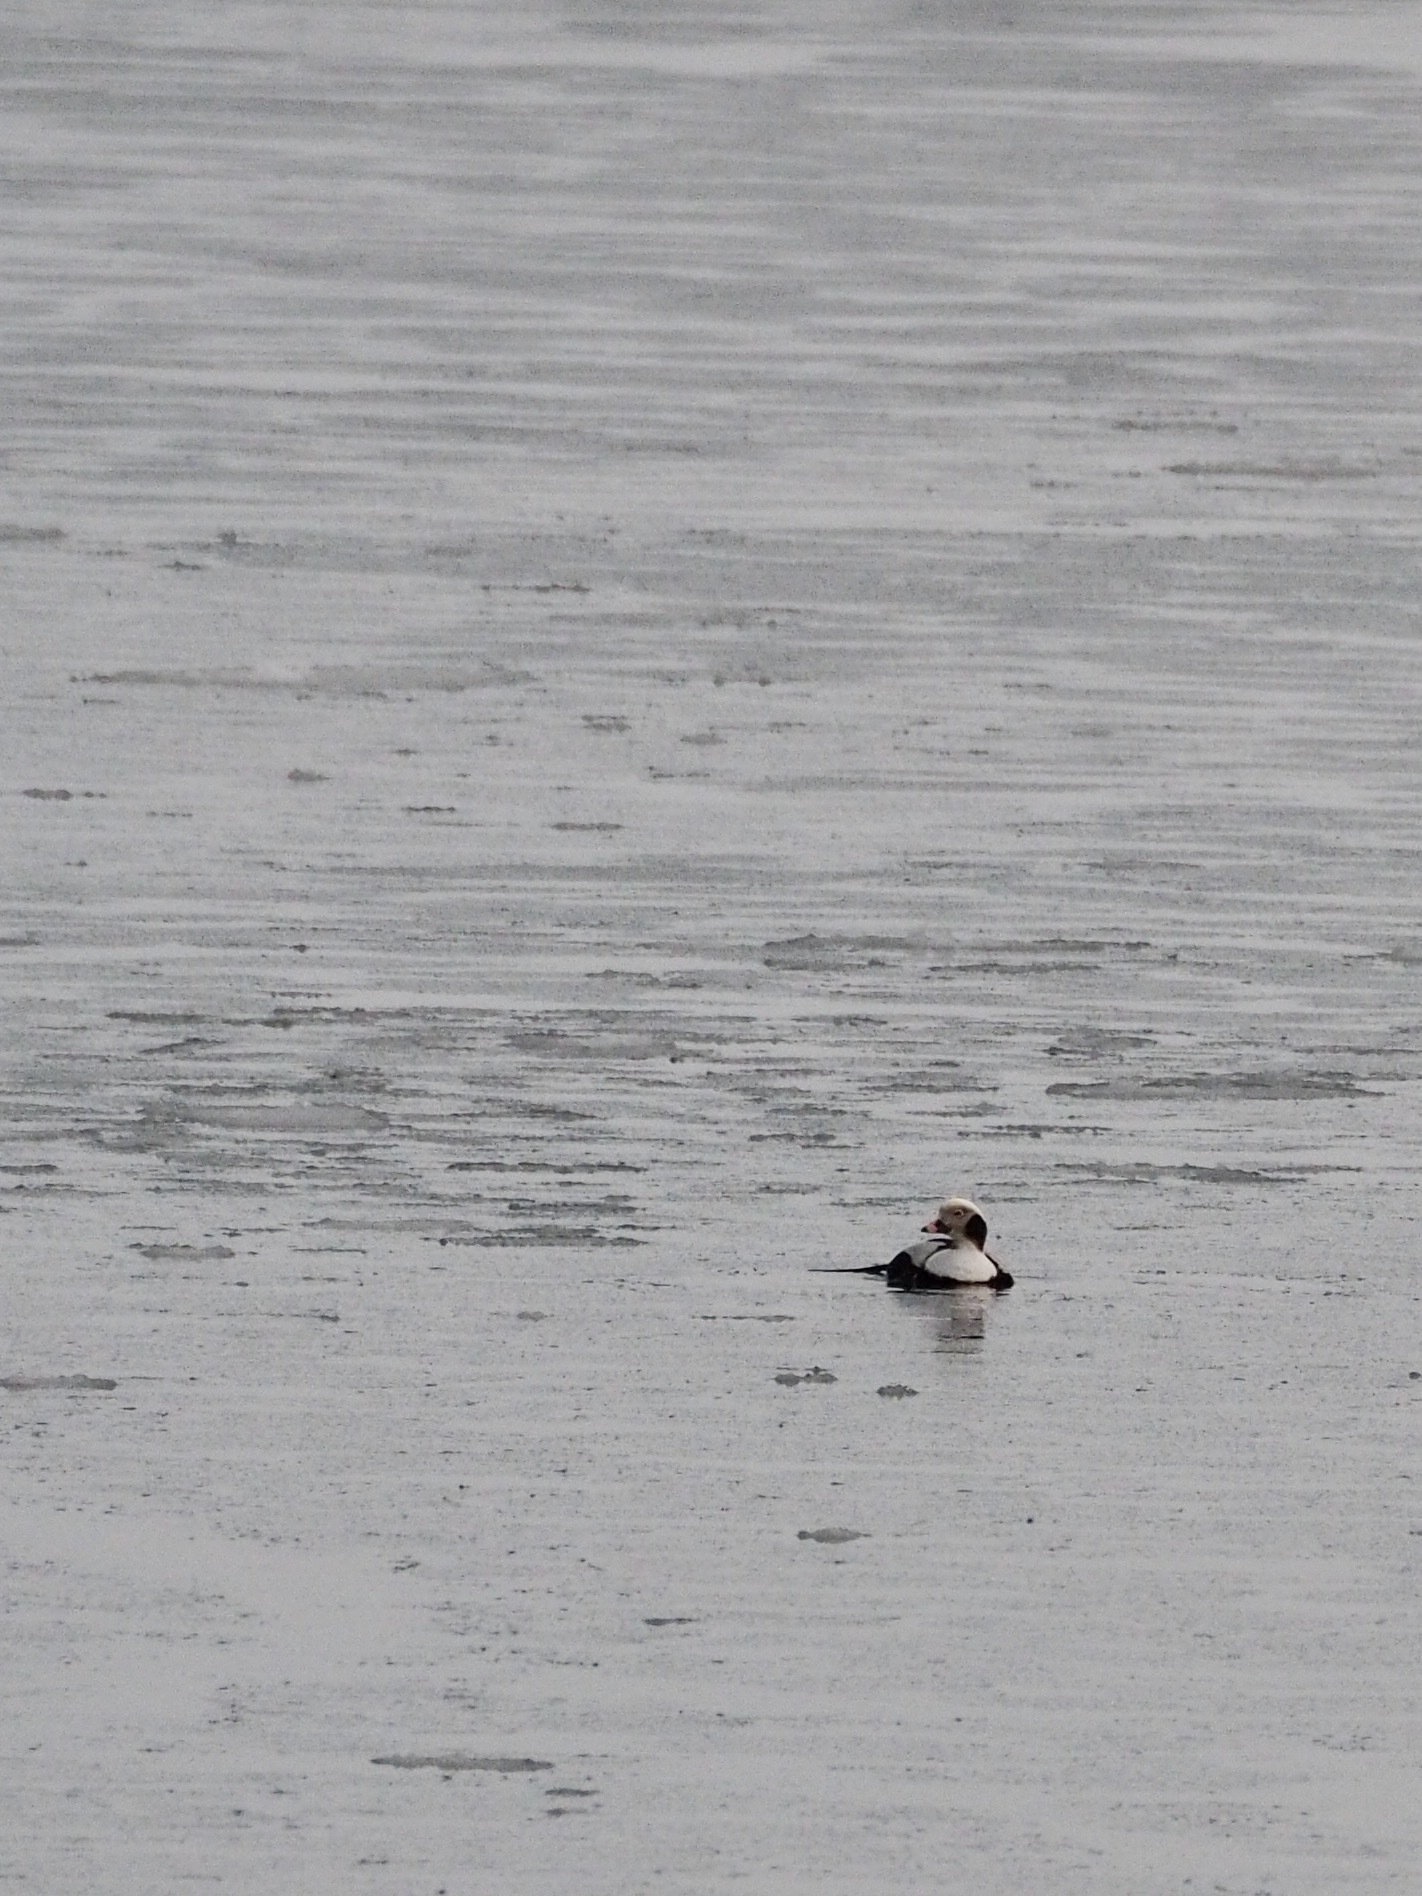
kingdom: Animalia
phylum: Chordata
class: Aves
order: Anseriformes
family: Anatidae
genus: Clangula
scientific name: Clangula hyemalis
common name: Long-tailed duck
